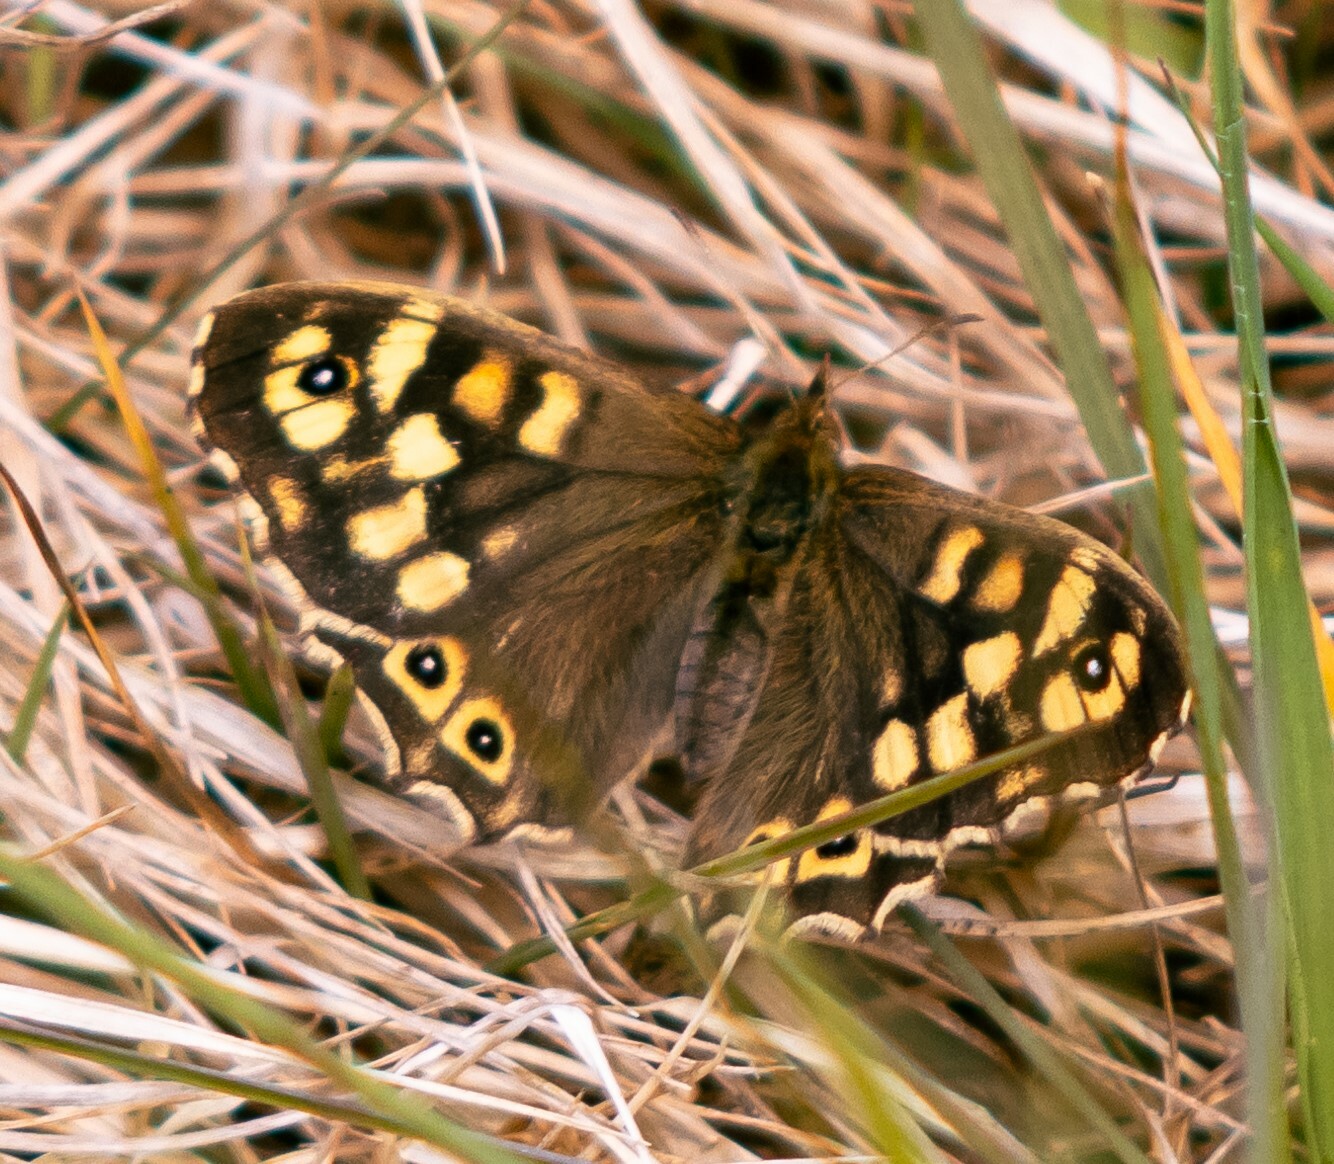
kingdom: Animalia
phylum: Arthropoda
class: Insecta
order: Lepidoptera
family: Nymphalidae
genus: Pararge
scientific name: Pararge aegeria
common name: Speckled wood
